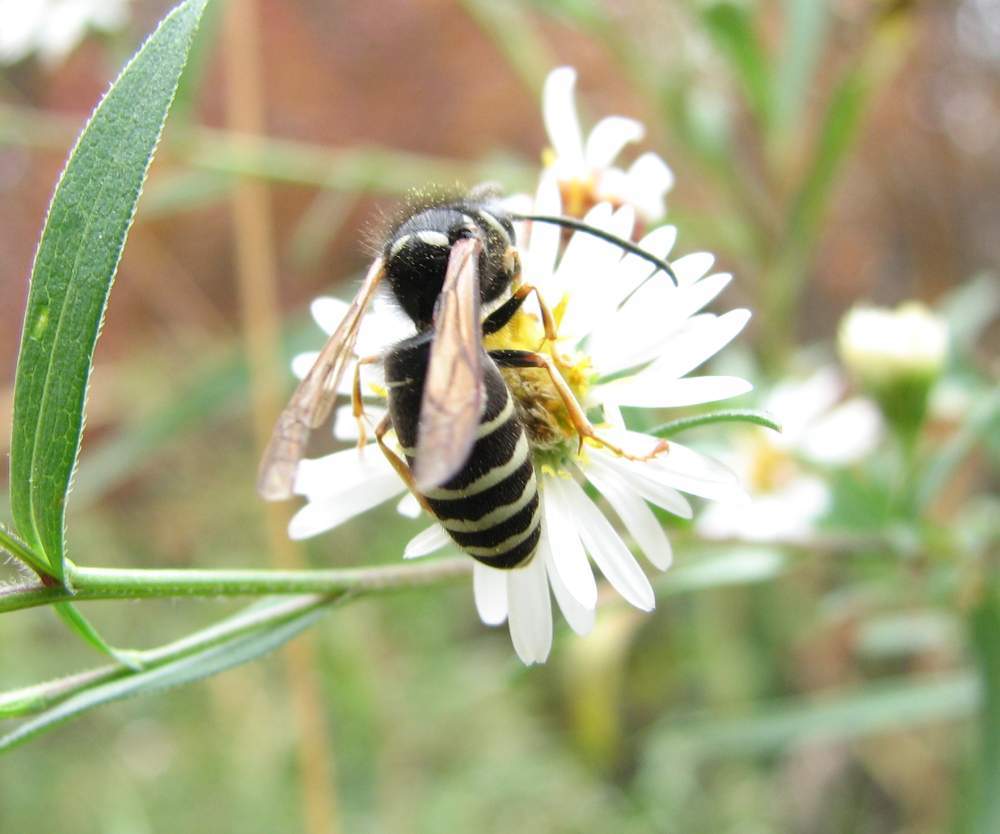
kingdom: Animalia
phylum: Arthropoda
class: Insecta
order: Hymenoptera
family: Vespidae
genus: Vespula
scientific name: Vespula consobrina
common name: Blackjacket
